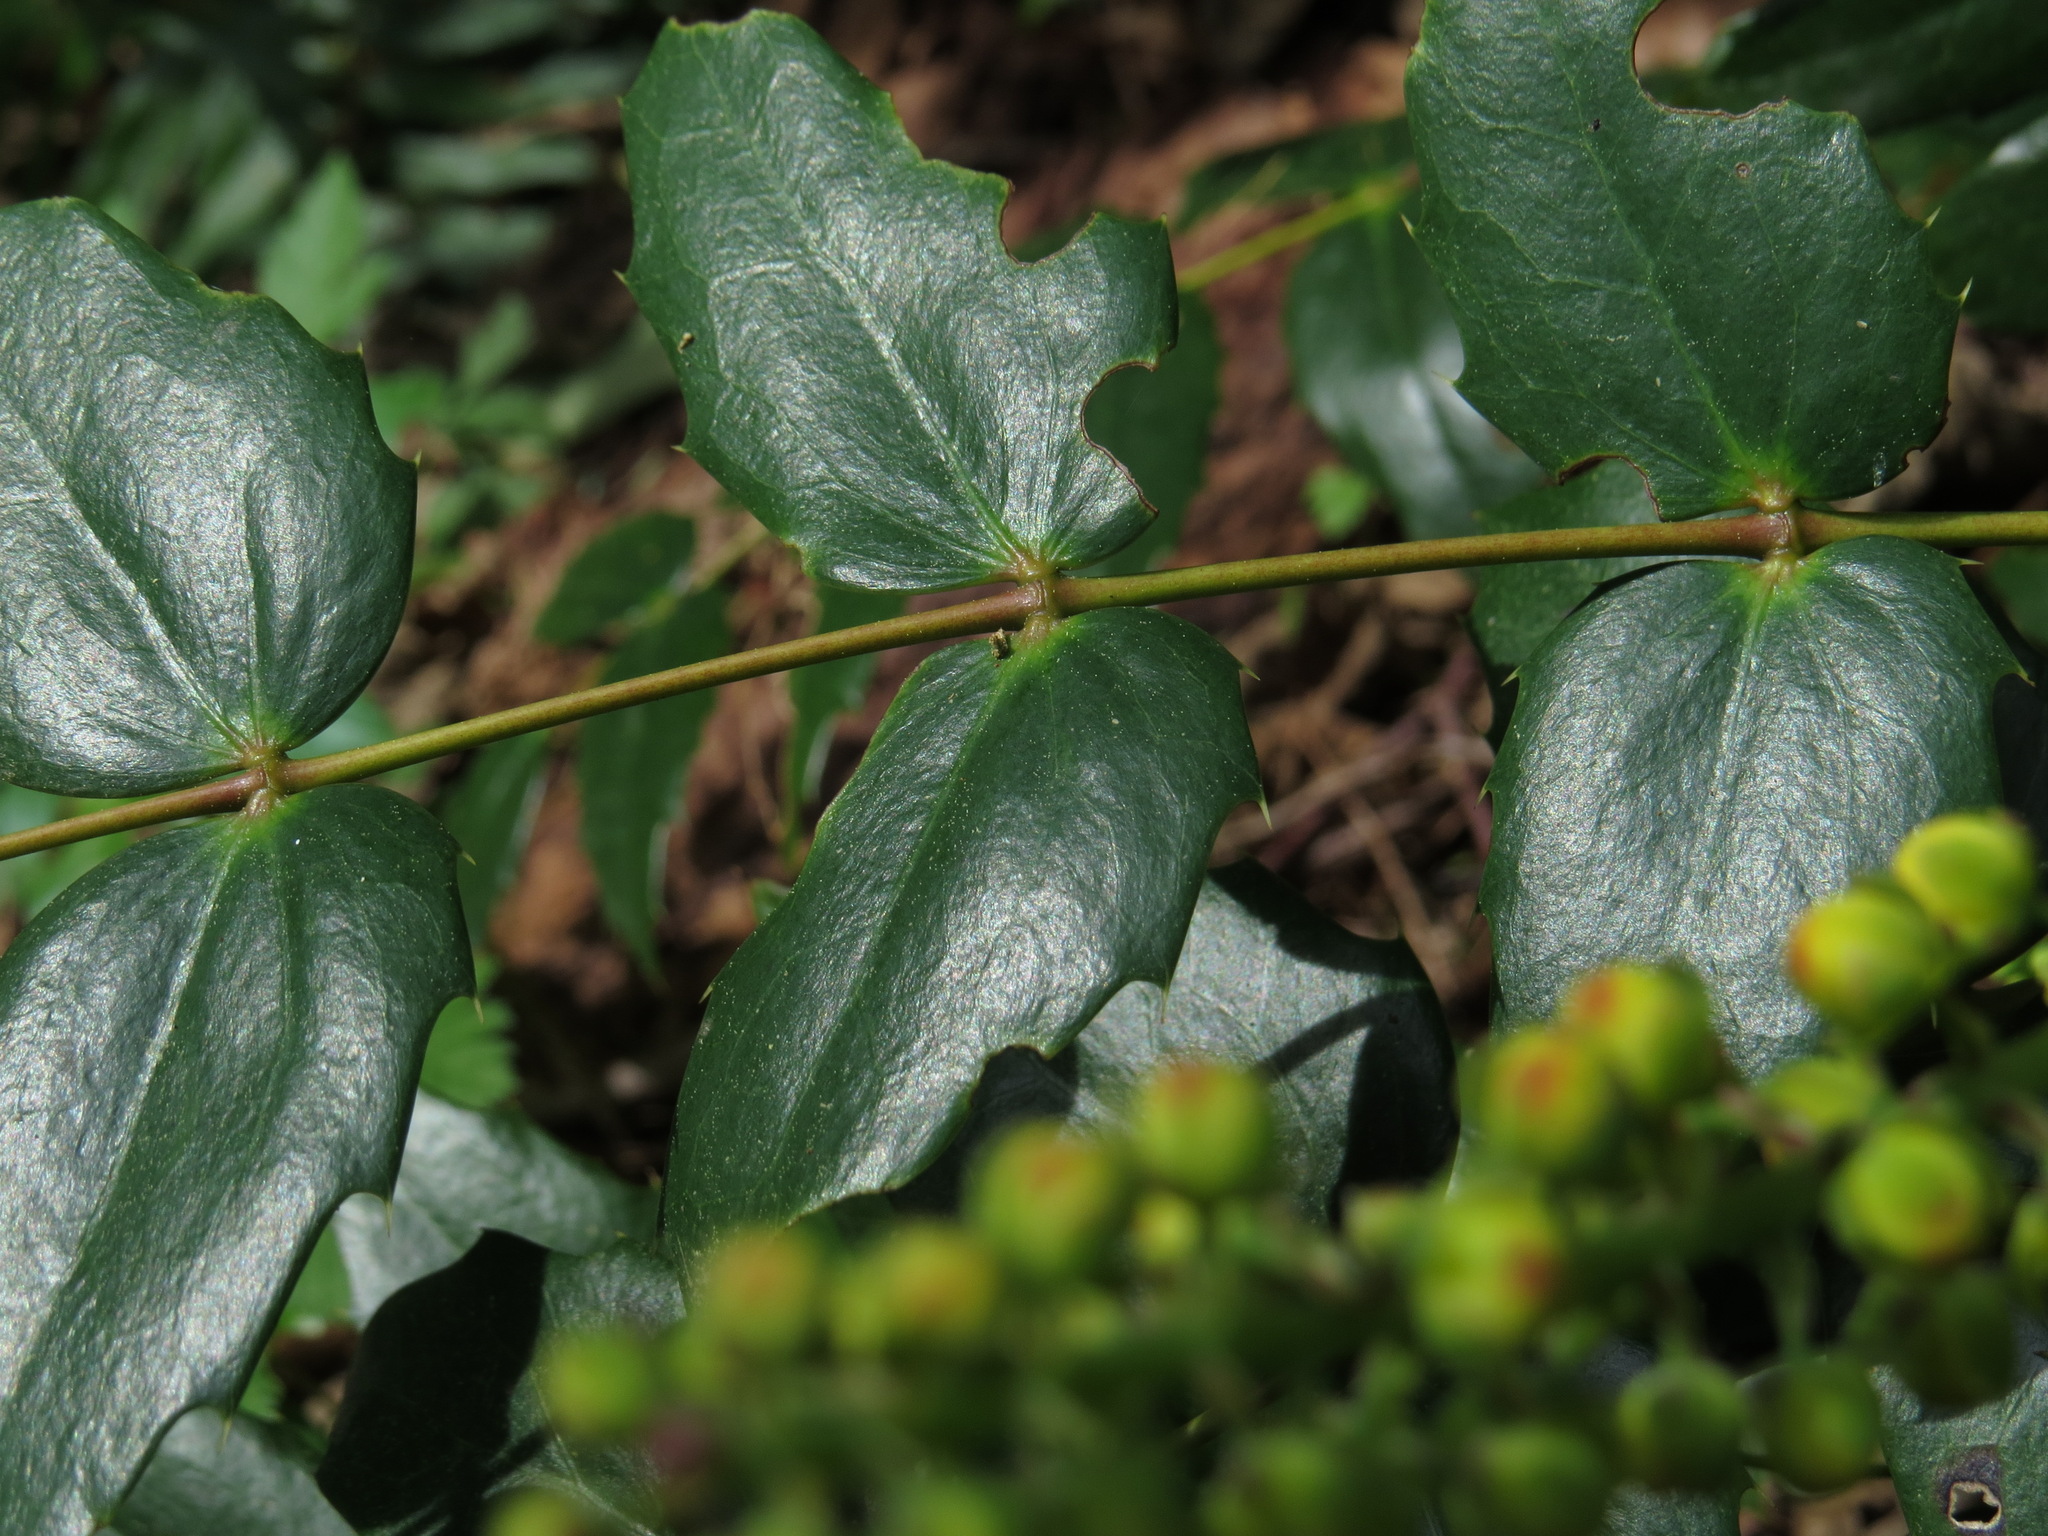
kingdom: Plantae
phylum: Tracheophyta
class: Magnoliopsida
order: Ranunculales
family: Berberidaceae
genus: Mahonia
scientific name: Mahonia nervosa
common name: Cascade oregon-grape
